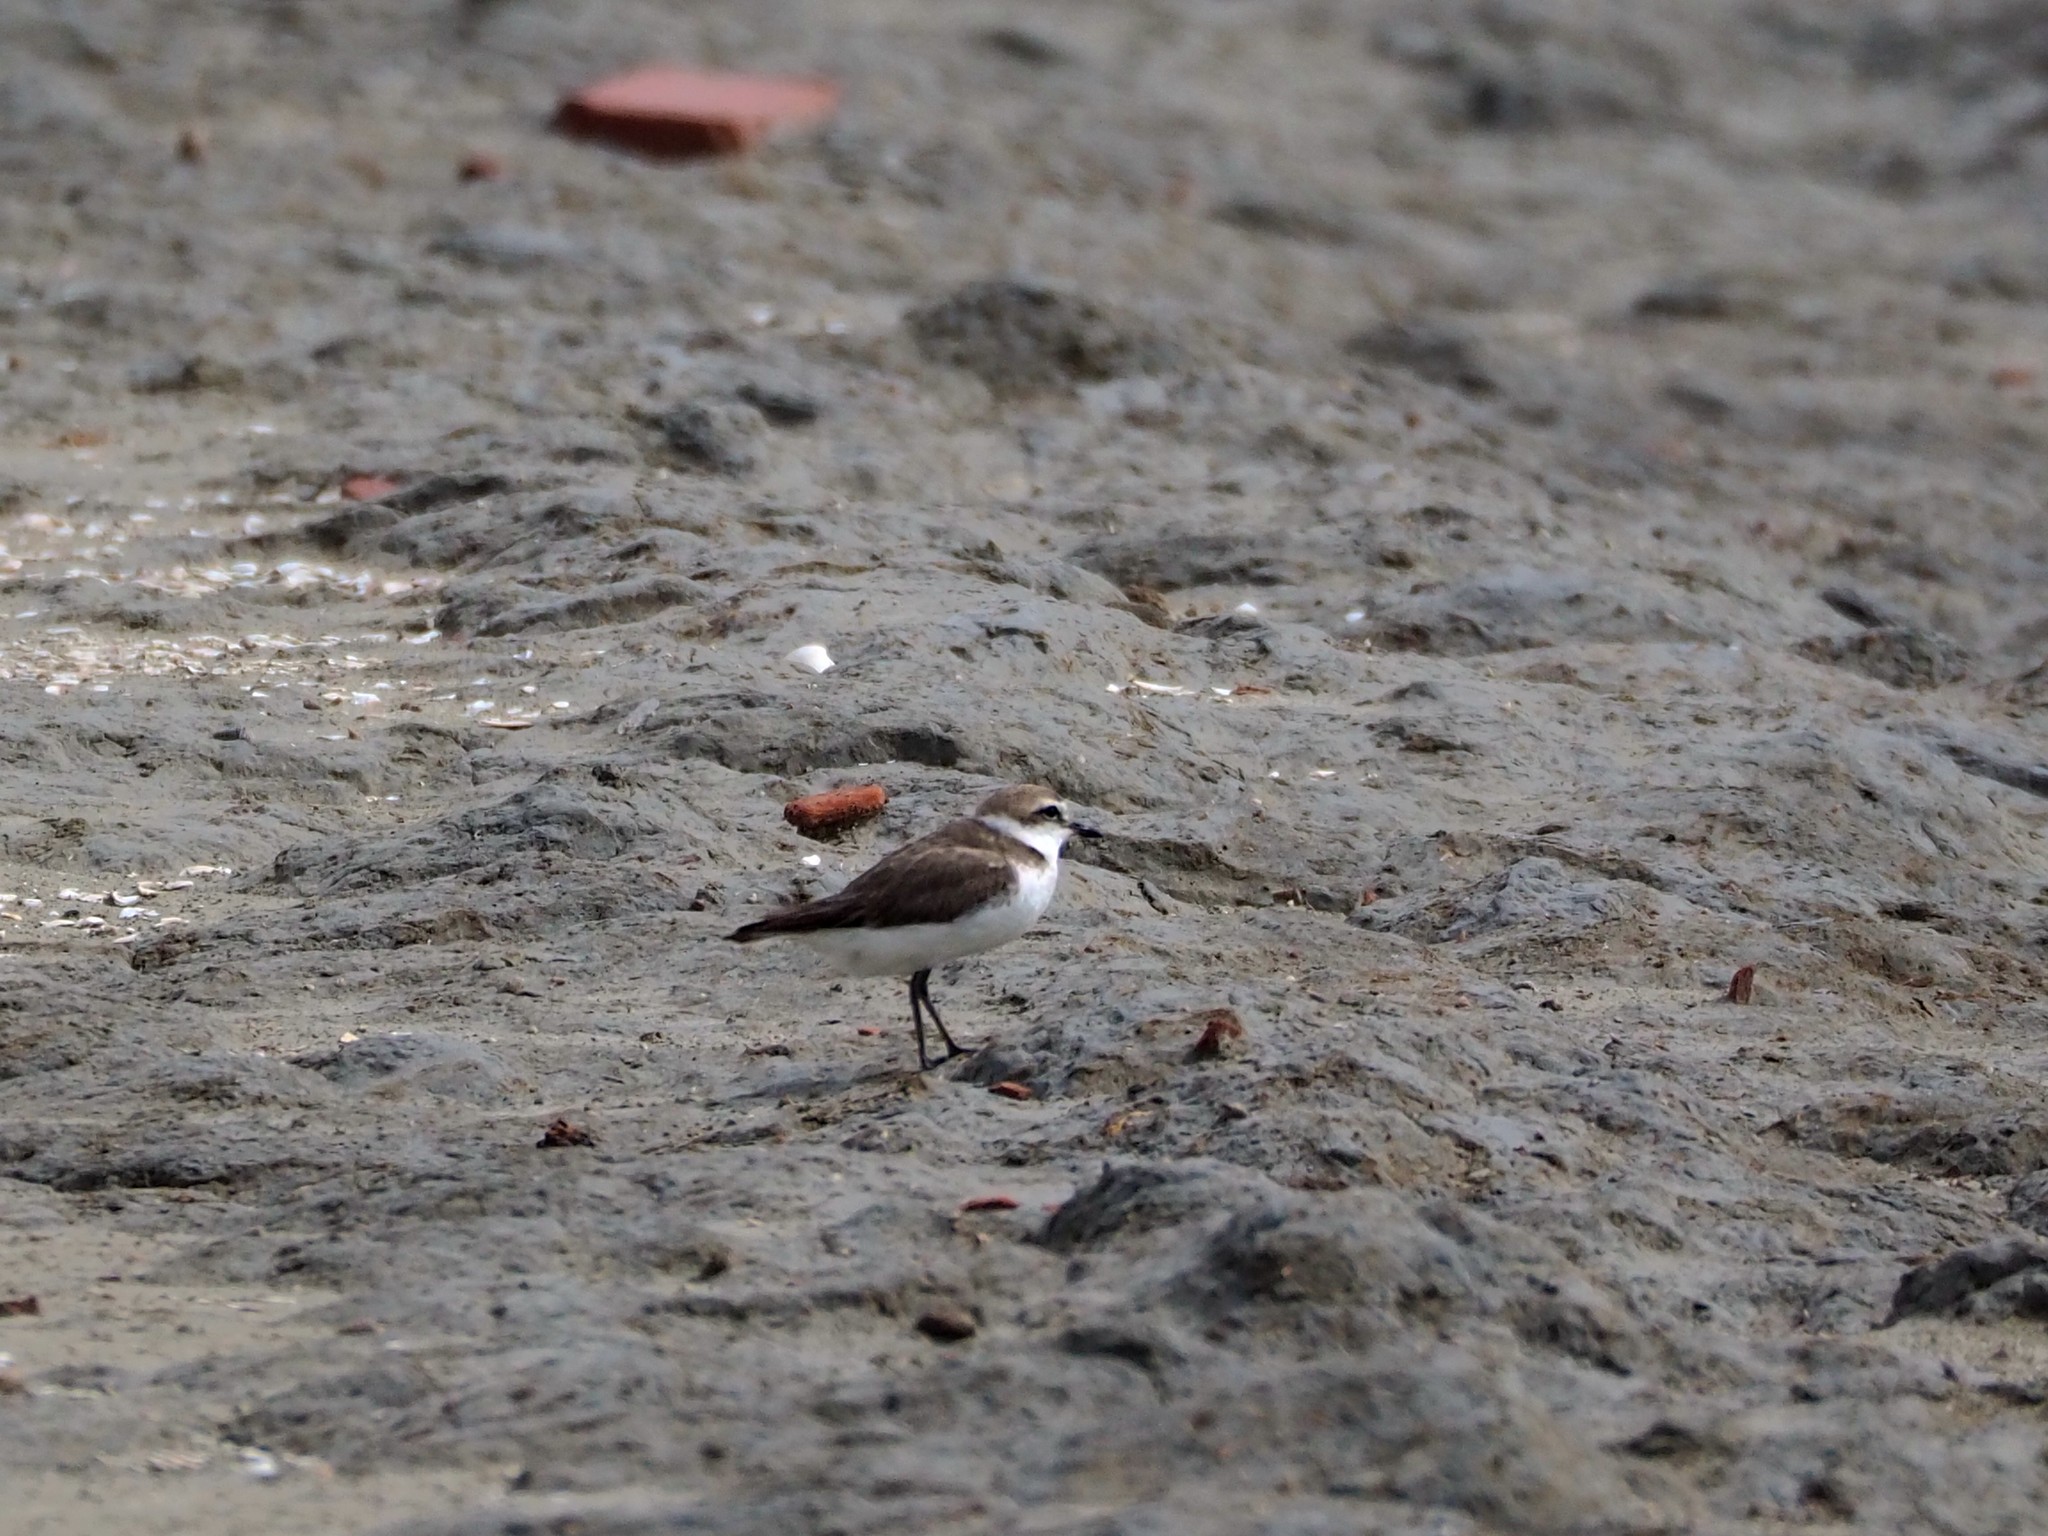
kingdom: Animalia
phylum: Chordata
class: Aves
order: Charadriiformes
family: Charadriidae
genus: Charadrius
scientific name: Charadrius alexandrinus
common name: Kentish plover
